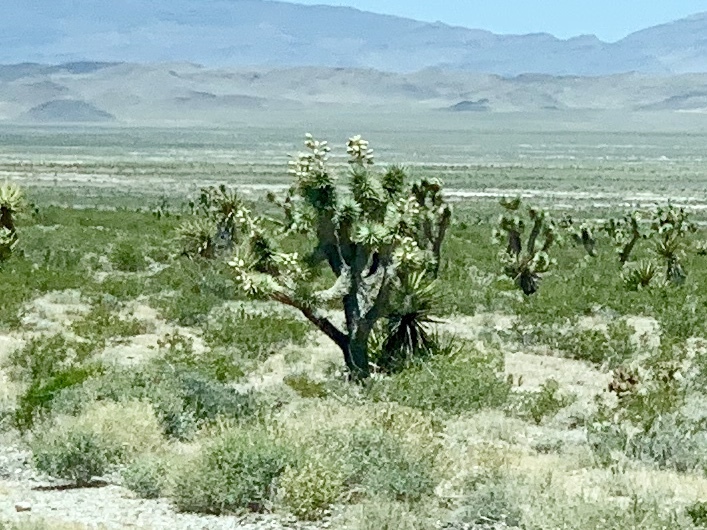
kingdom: Plantae
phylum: Tracheophyta
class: Liliopsida
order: Asparagales
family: Asparagaceae
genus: Yucca
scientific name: Yucca brevifolia
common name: Joshua tree
